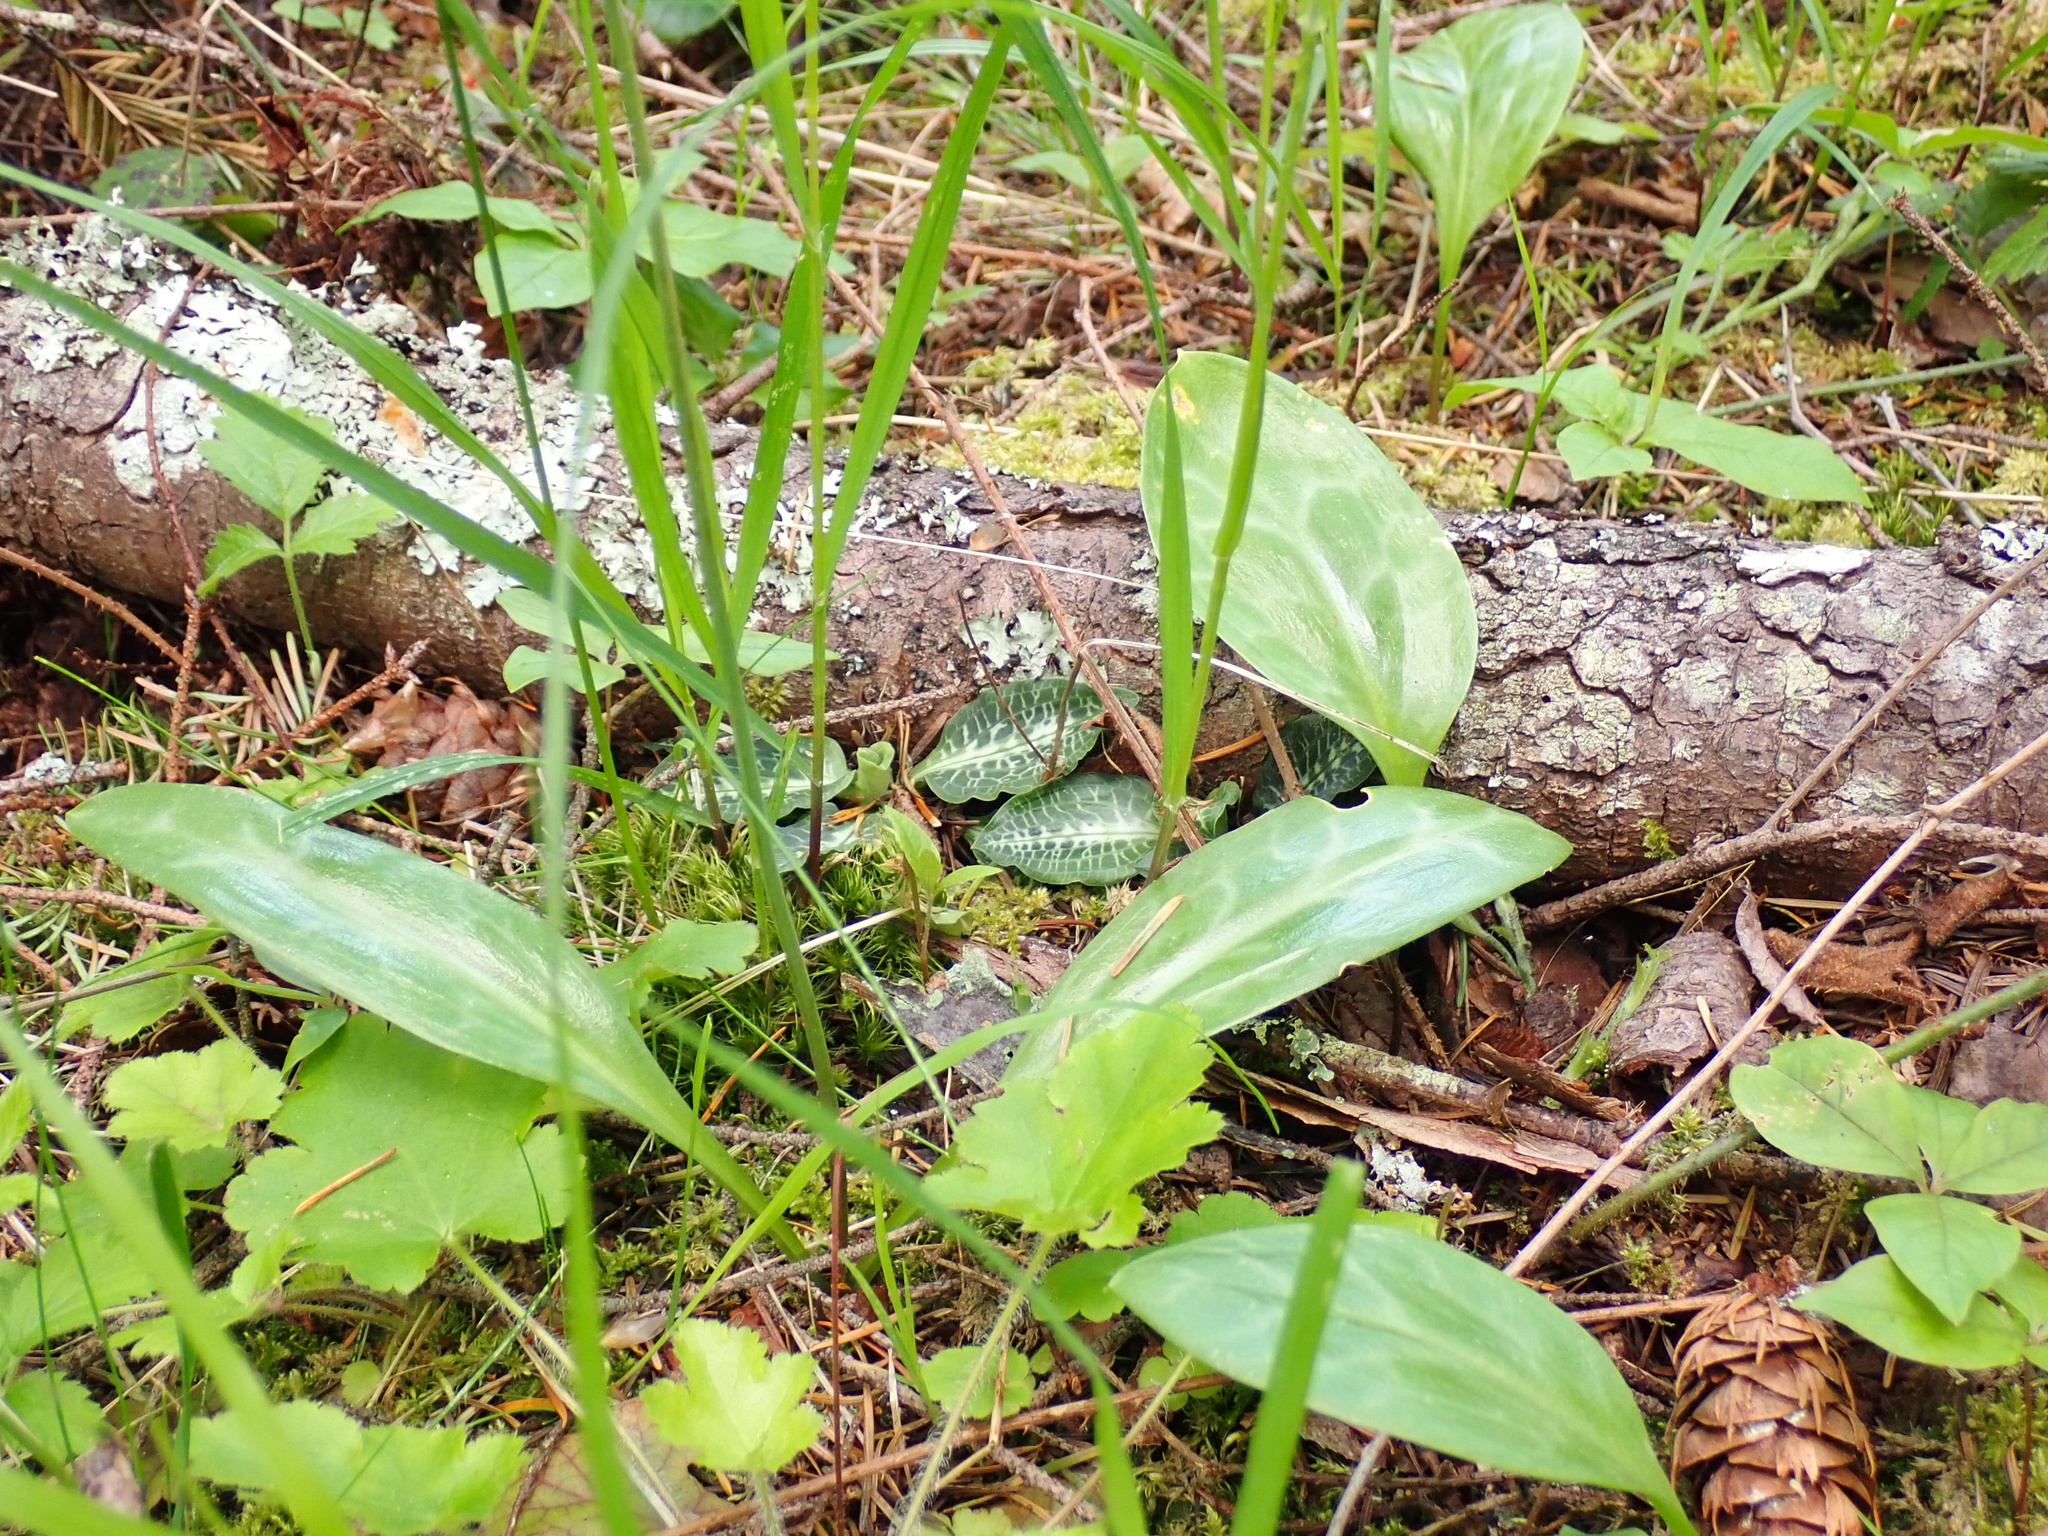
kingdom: Plantae
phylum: Tracheophyta
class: Liliopsida
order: Liliales
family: Liliaceae
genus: Erythronium
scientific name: Erythronium oregonum
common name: Giant adder's-tongue
